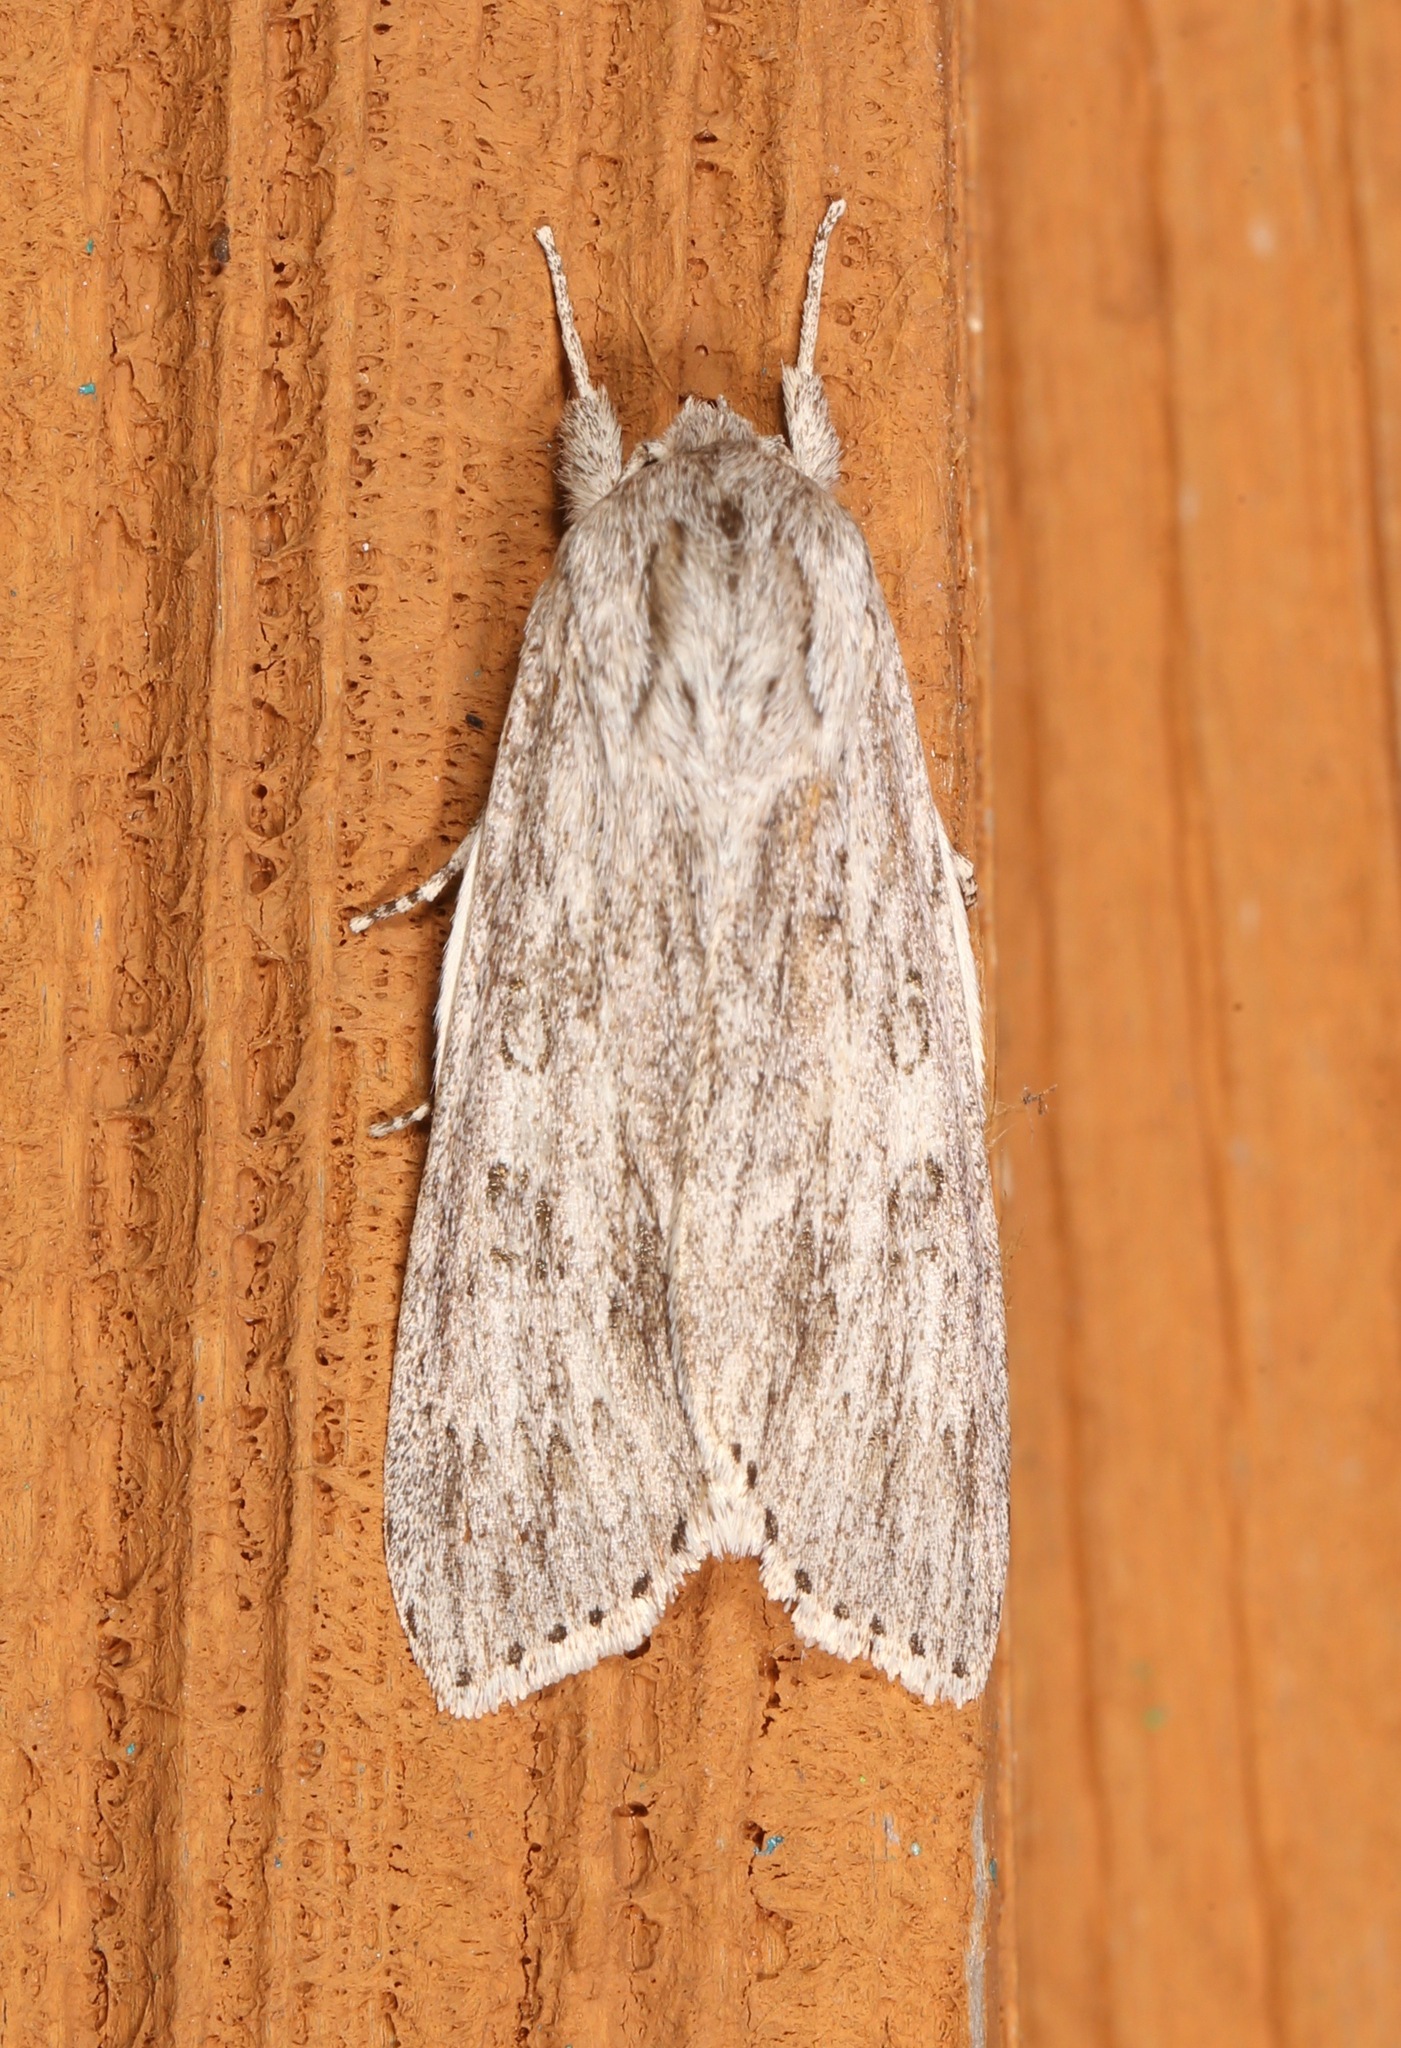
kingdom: Animalia
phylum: Arthropoda
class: Insecta
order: Lepidoptera
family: Noctuidae
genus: Acronicta
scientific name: Acronicta oblinita
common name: Smeared dagger
